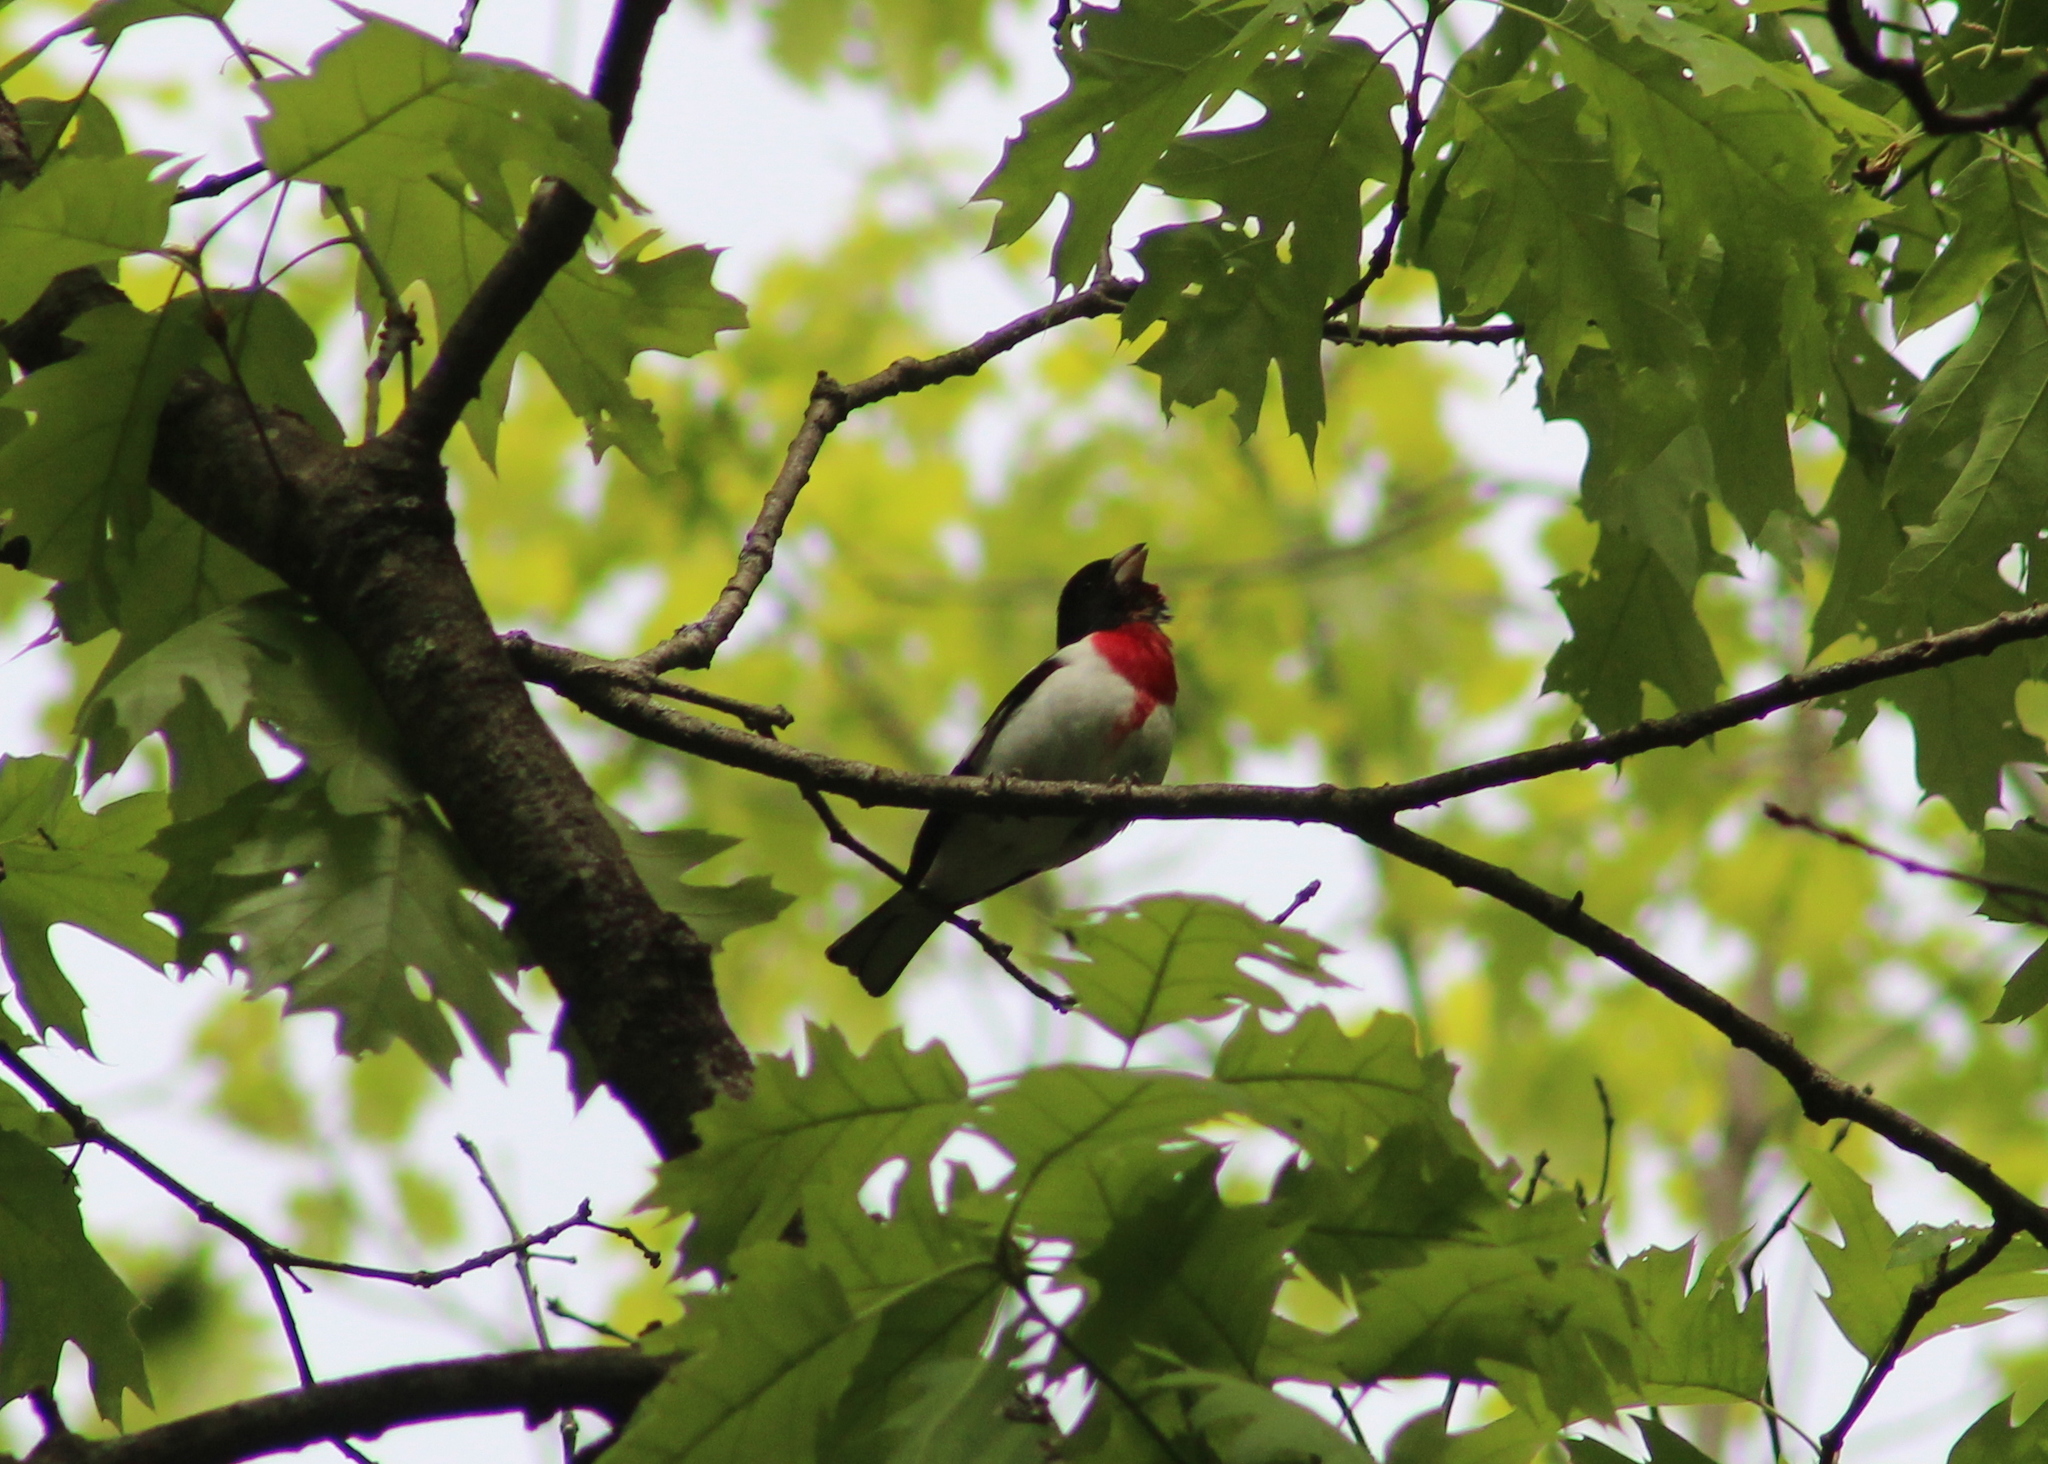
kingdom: Animalia
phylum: Chordata
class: Aves
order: Passeriformes
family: Cardinalidae
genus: Pheucticus
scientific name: Pheucticus ludovicianus
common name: Rose-breasted grosbeak
